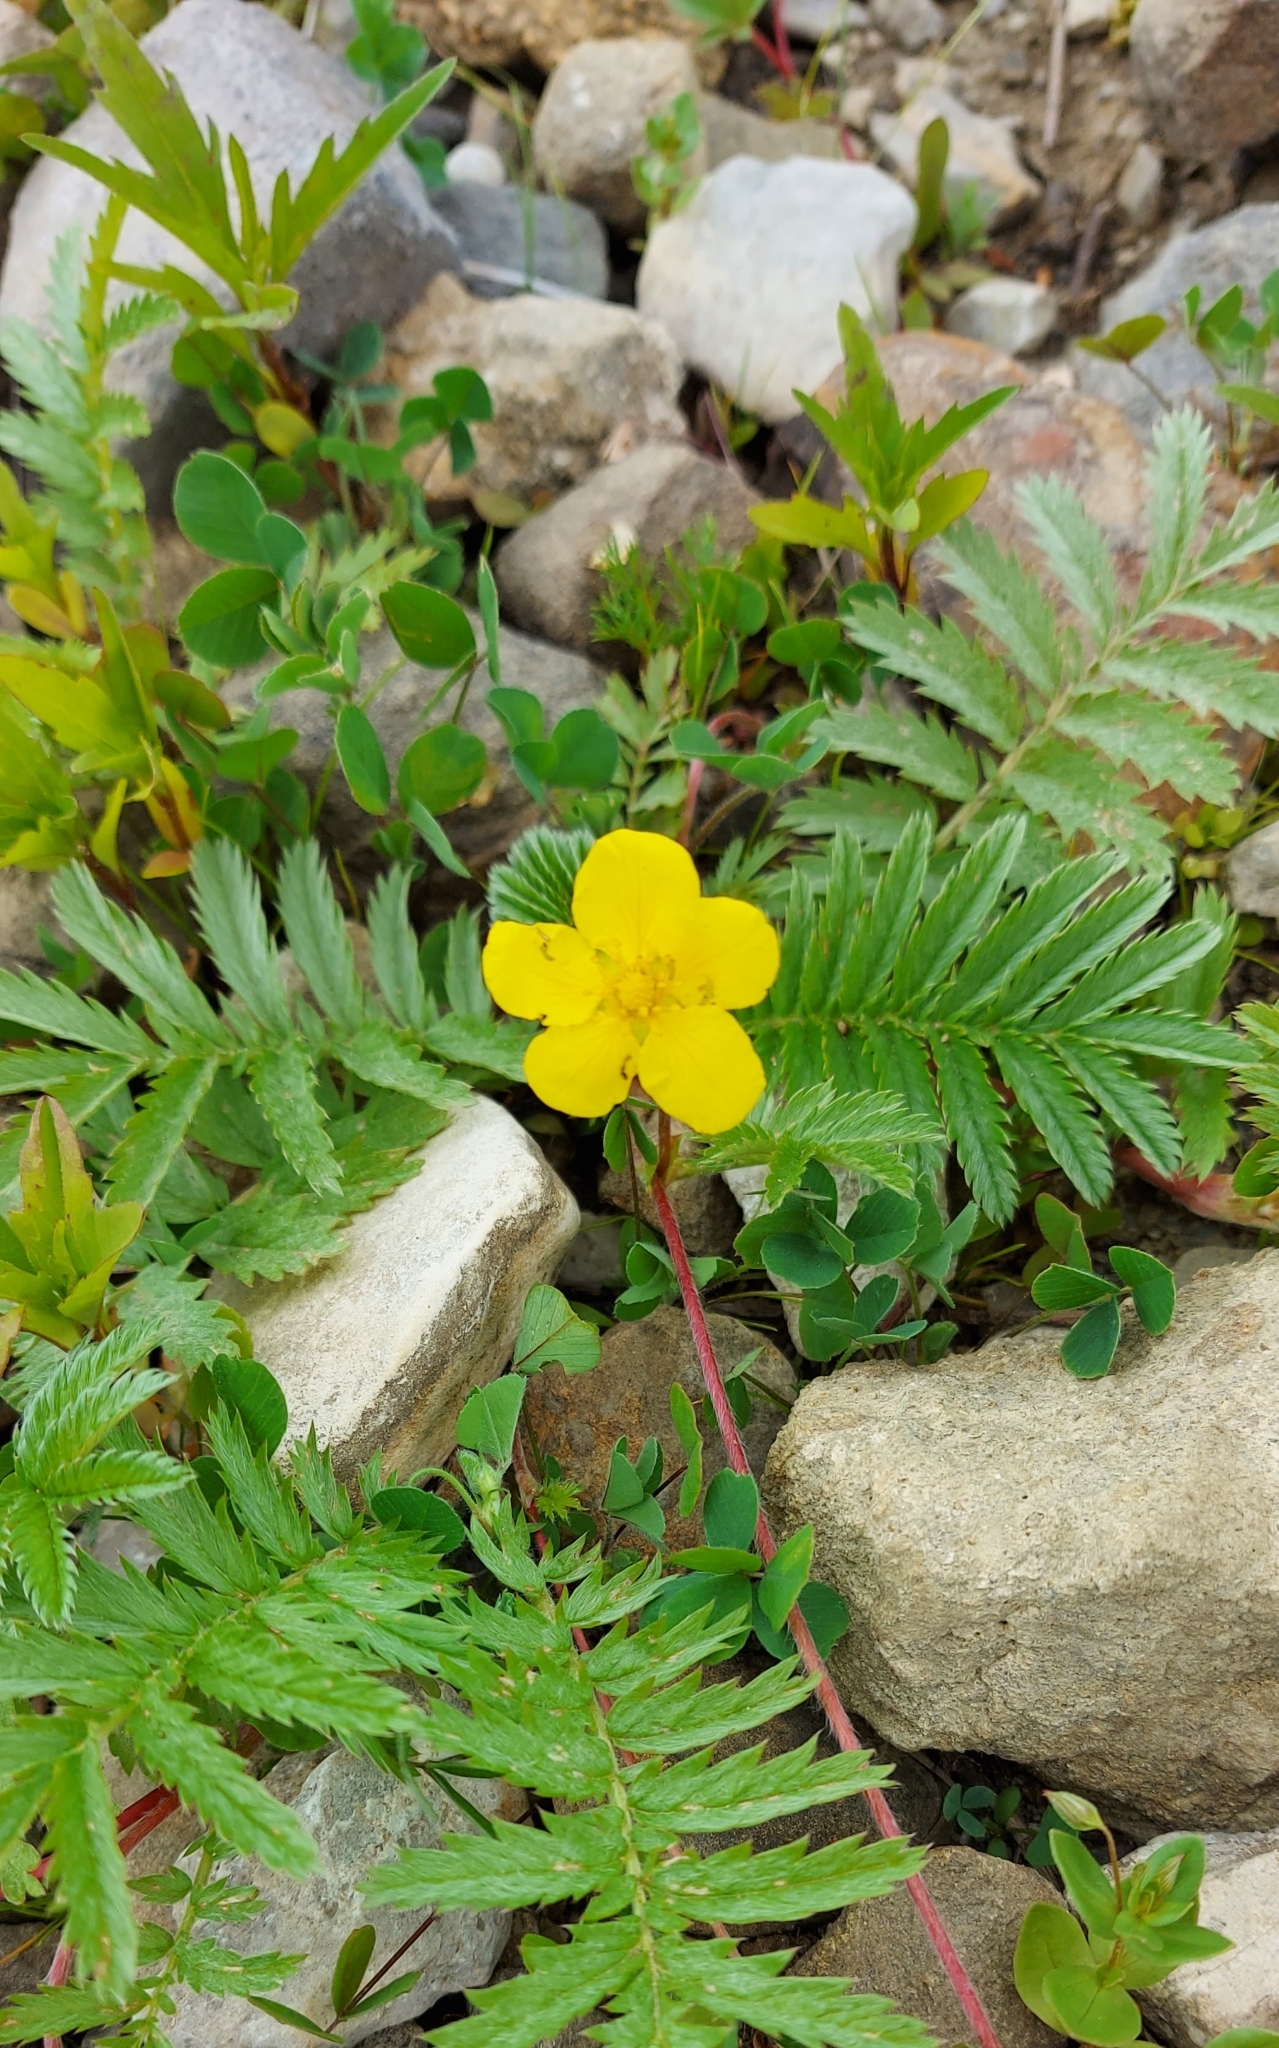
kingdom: Plantae
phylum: Tracheophyta
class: Magnoliopsida
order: Rosales
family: Rosaceae
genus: Argentina
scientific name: Argentina anserina
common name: Common silverweed
